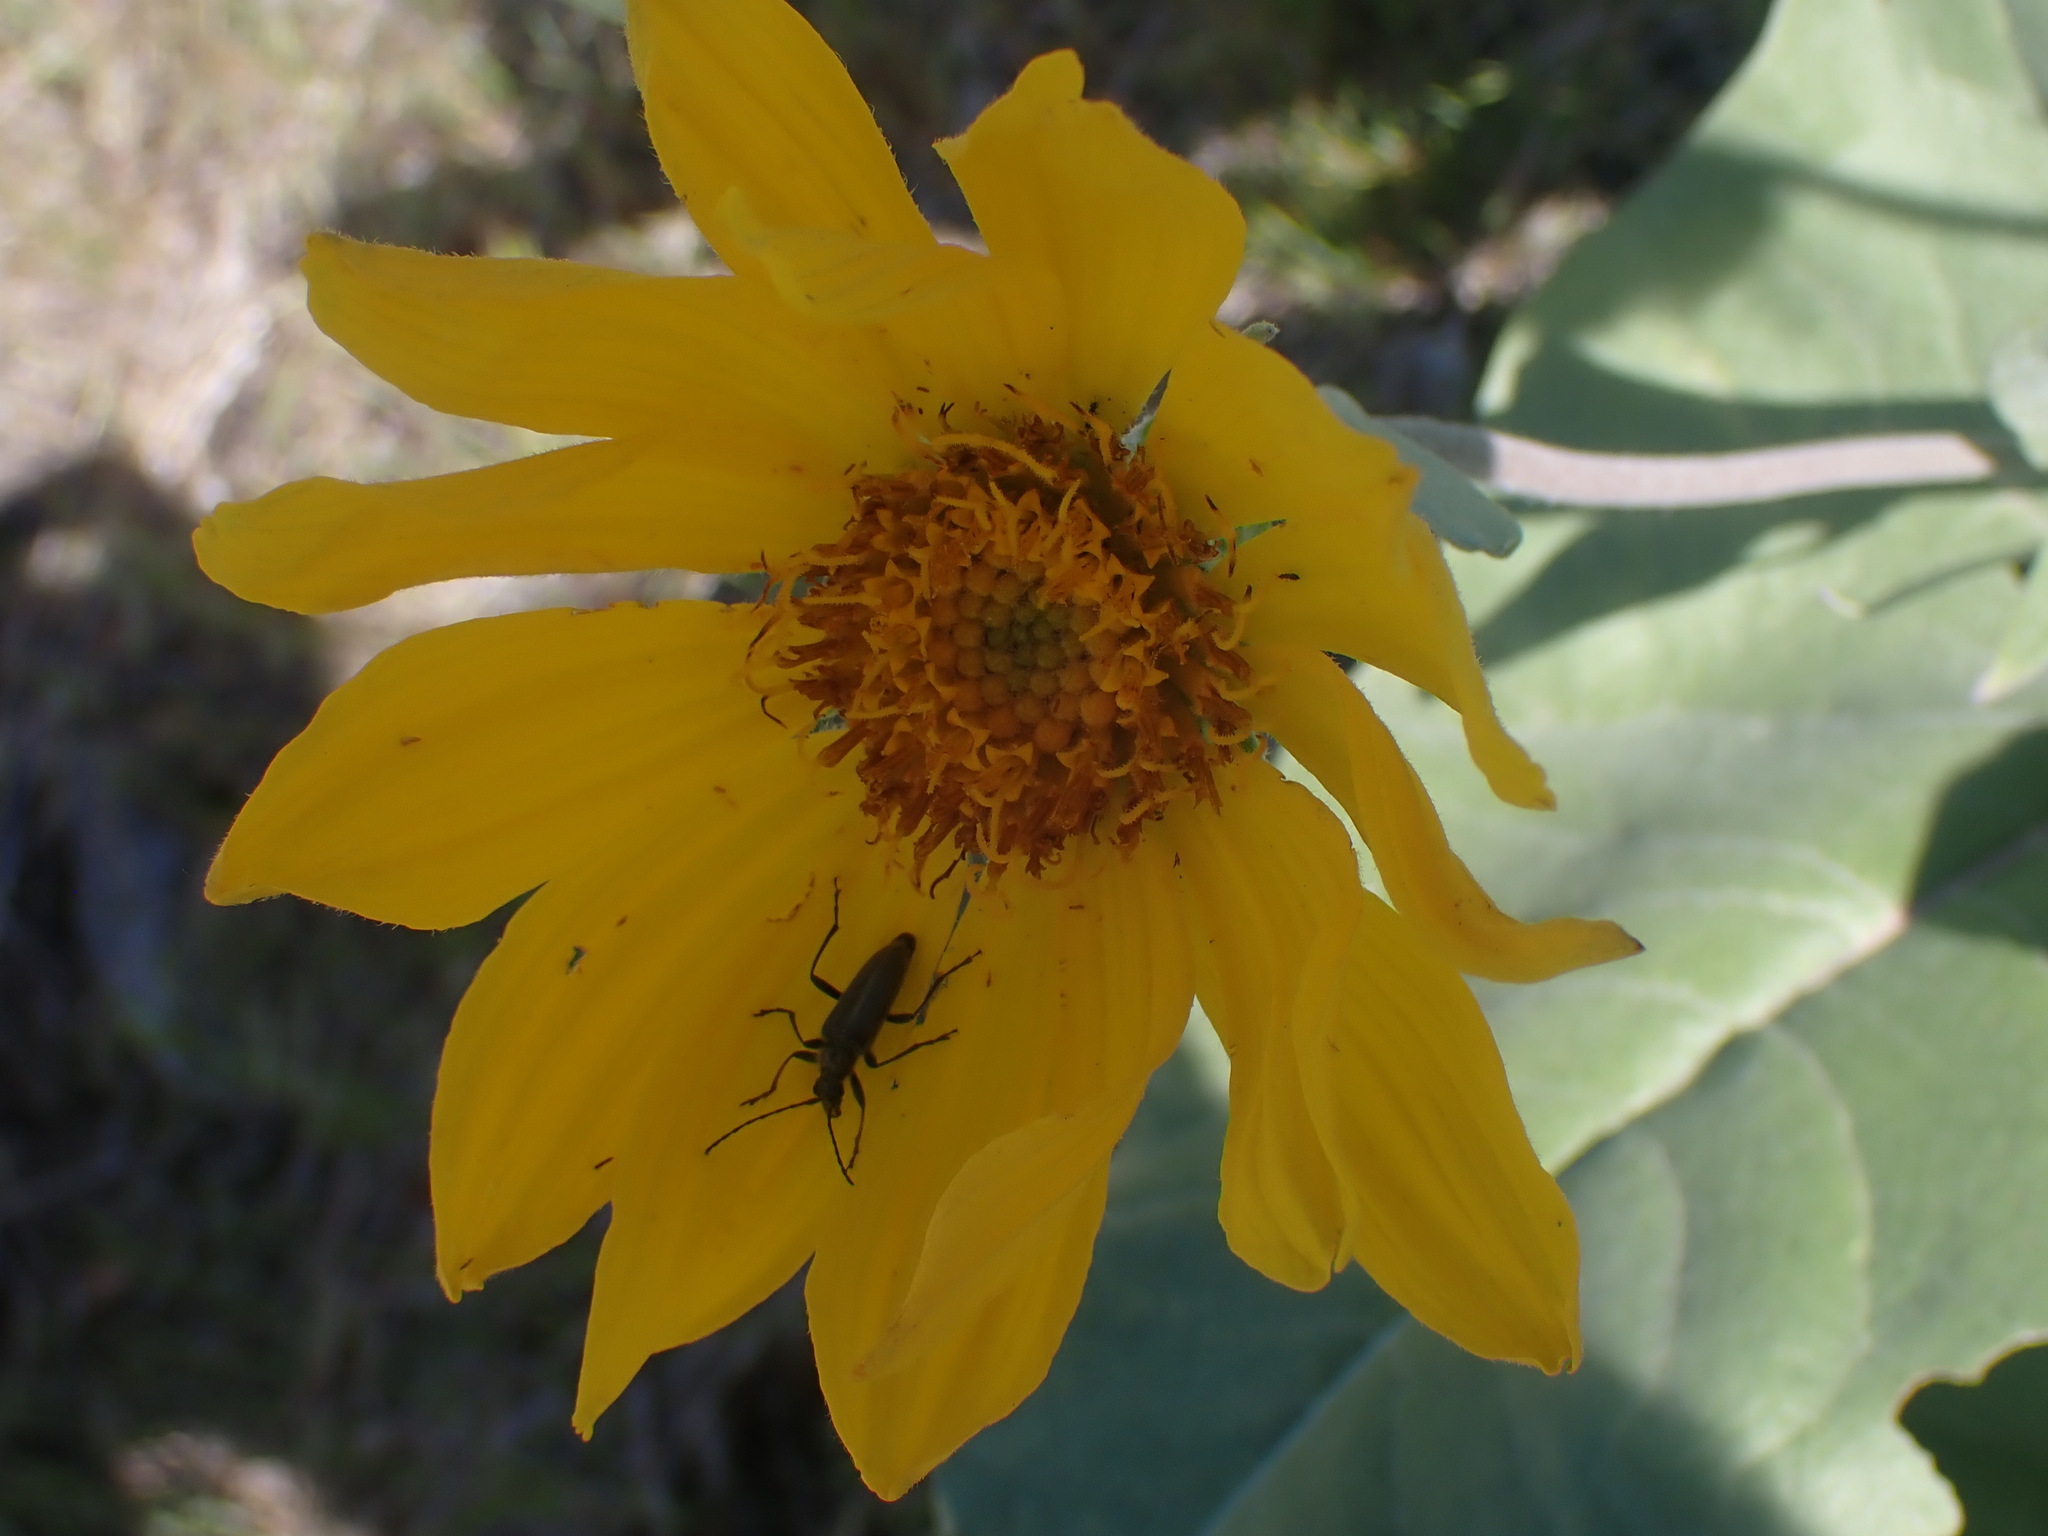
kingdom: Plantae
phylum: Tracheophyta
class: Magnoliopsida
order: Asterales
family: Asteraceae
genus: Wyethia
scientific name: Wyethia sagittata
